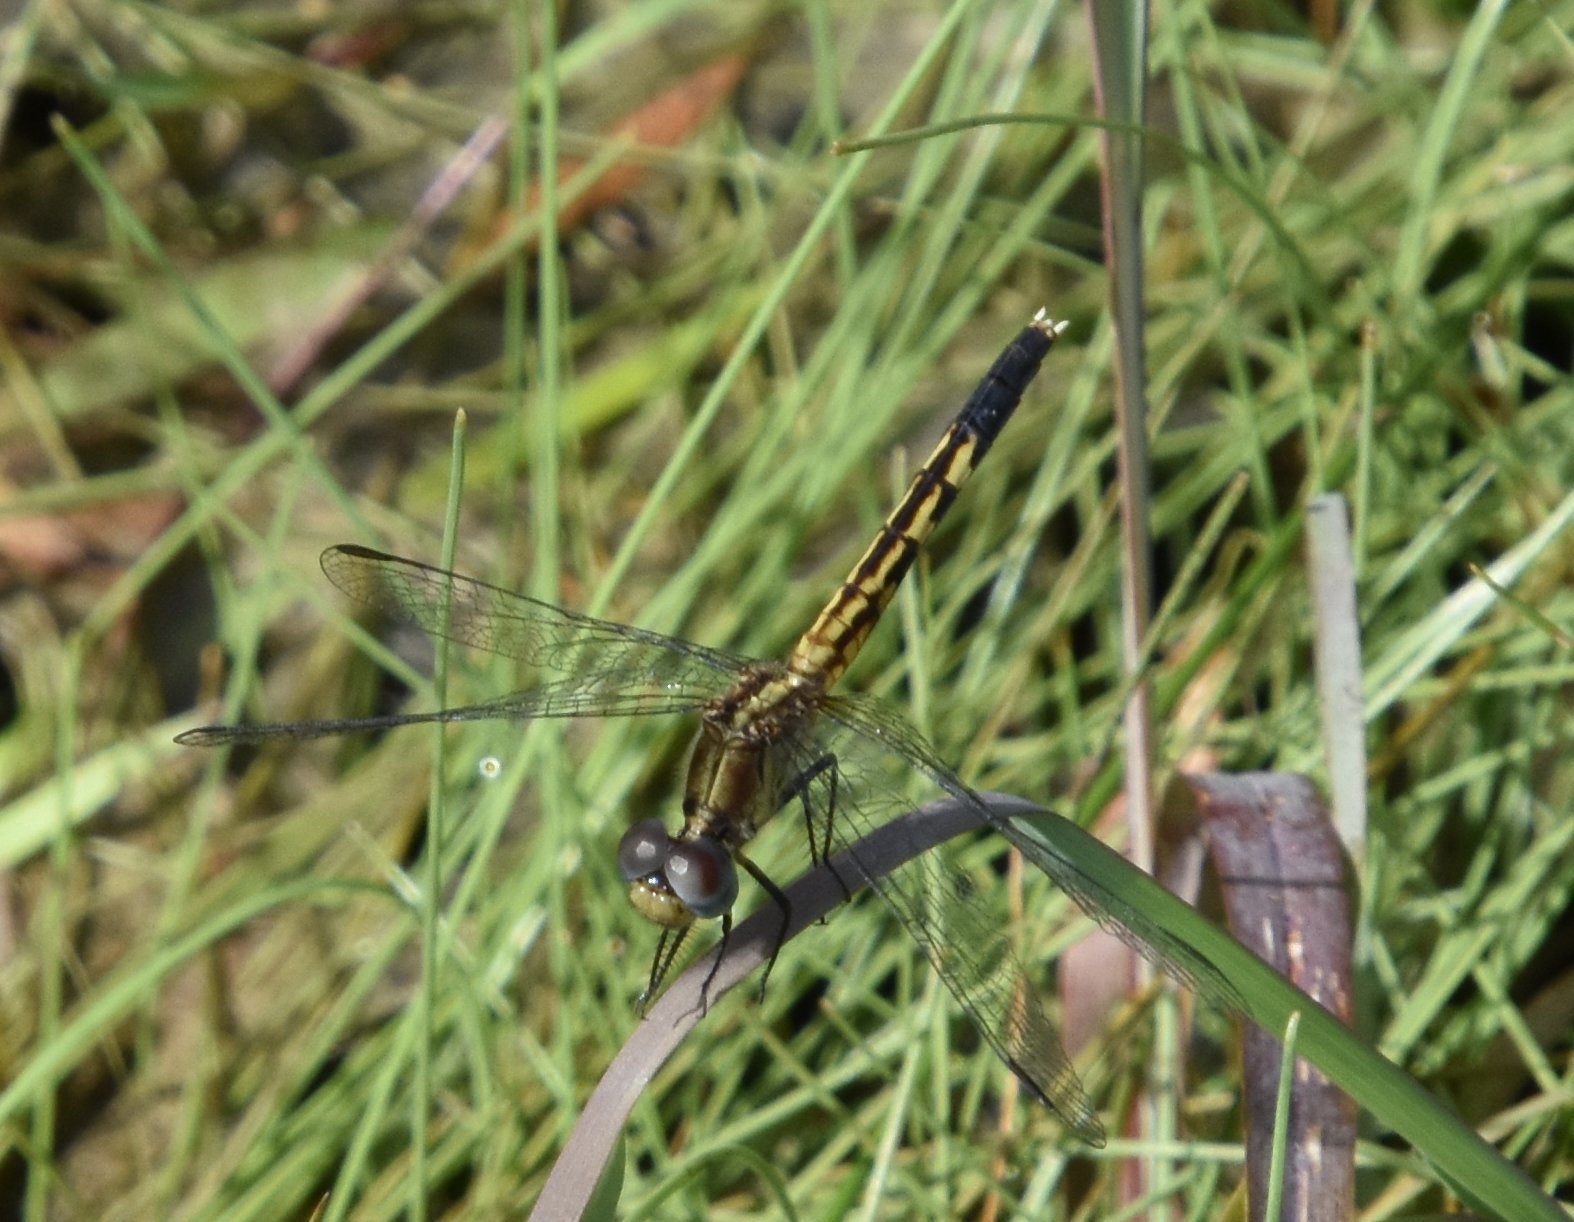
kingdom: Animalia
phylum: Arthropoda
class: Insecta
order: Odonata
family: Libellulidae
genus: Erythrodiplax
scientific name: Erythrodiplax minuscula
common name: Little blue dragonlet
